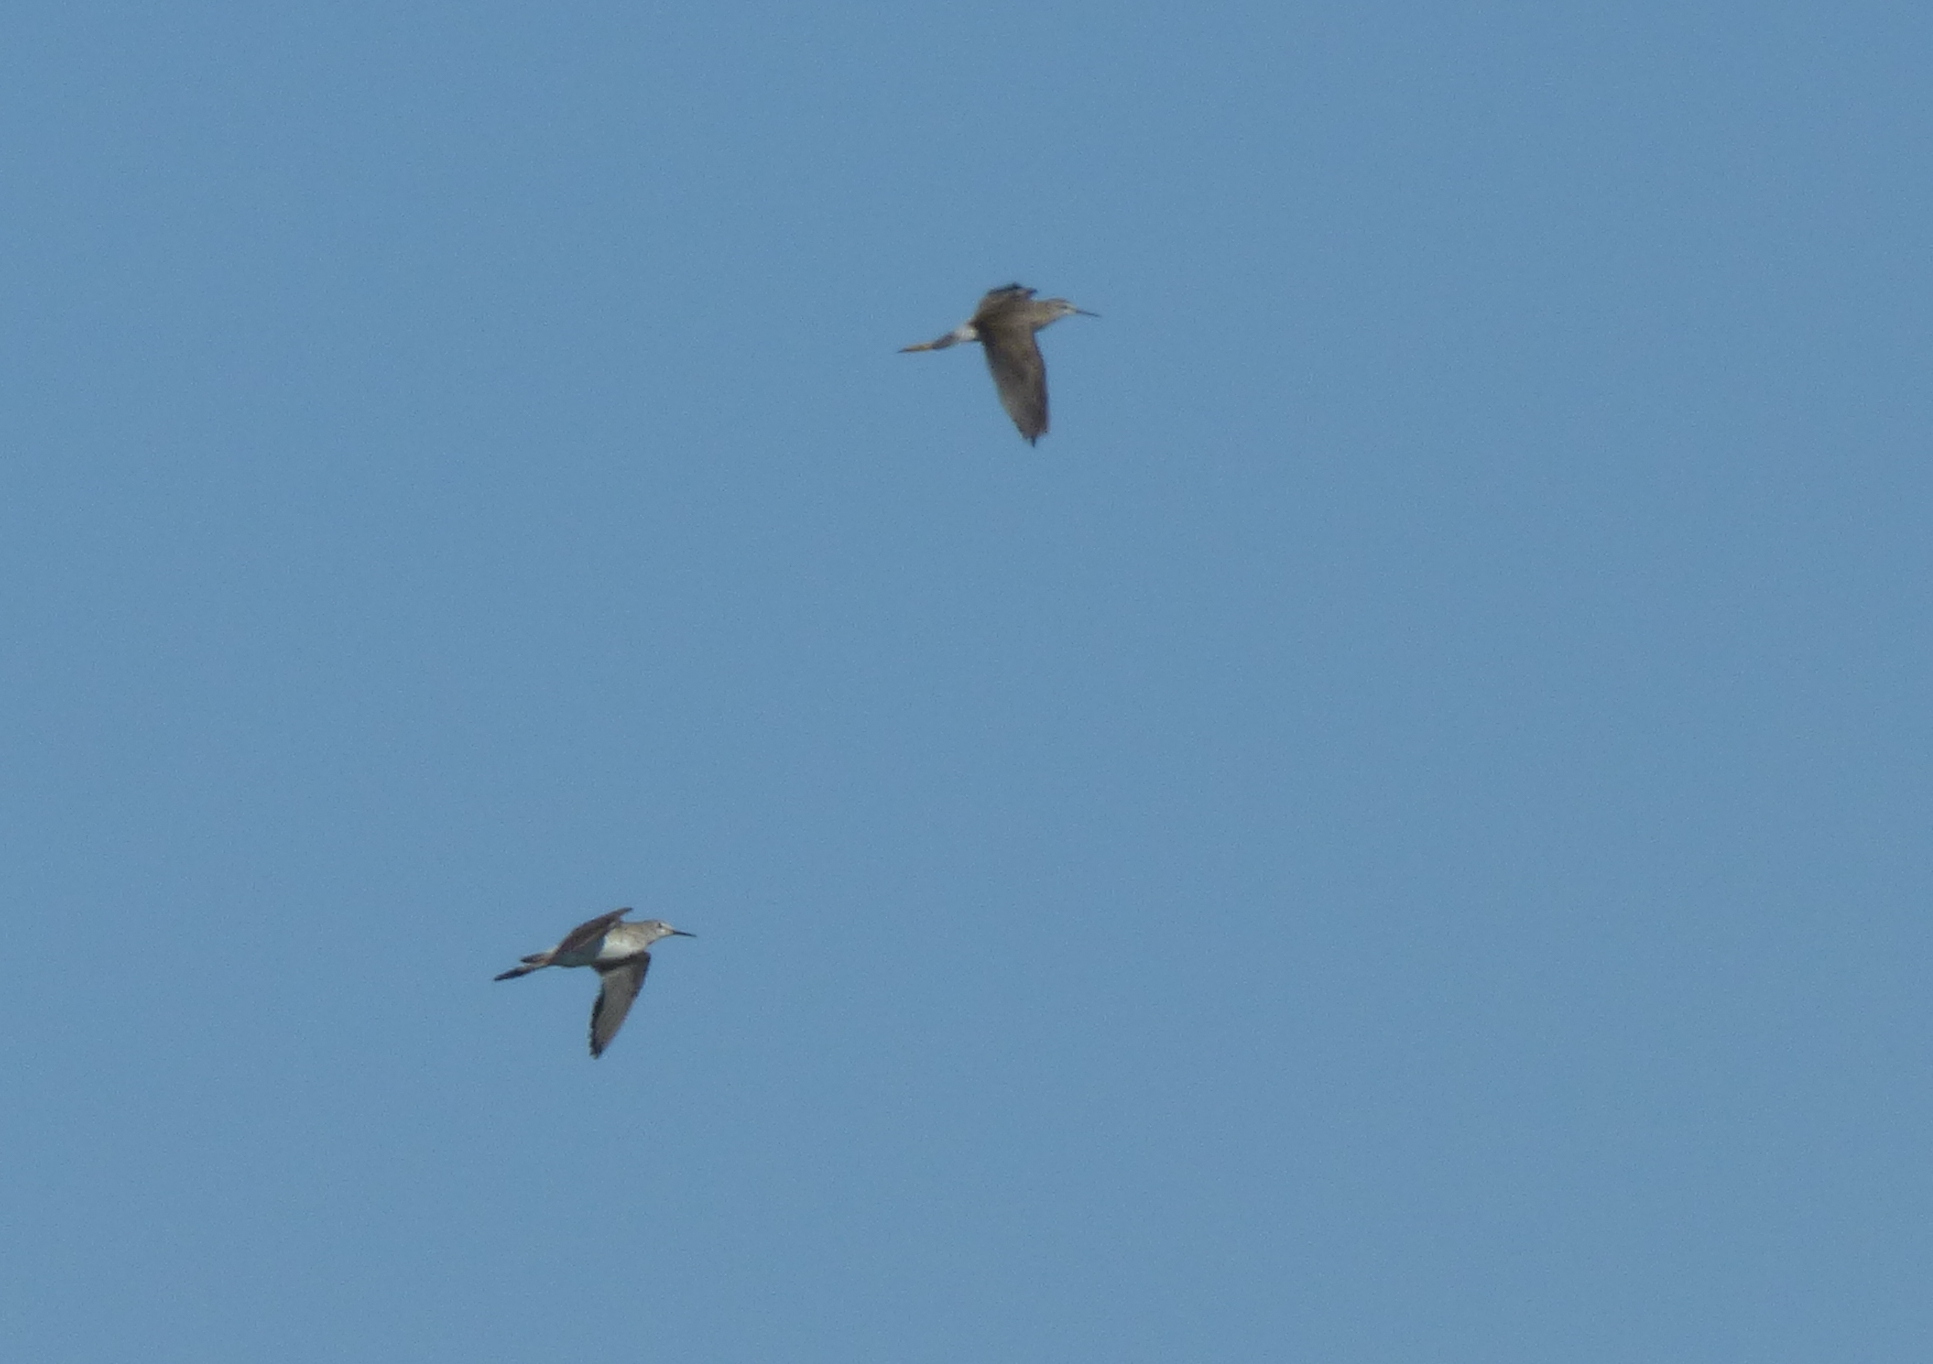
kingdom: Animalia
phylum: Chordata
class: Aves
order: Charadriiformes
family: Scolopacidae
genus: Tringa
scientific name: Tringa flavipes
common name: Lesser yellowlegs
